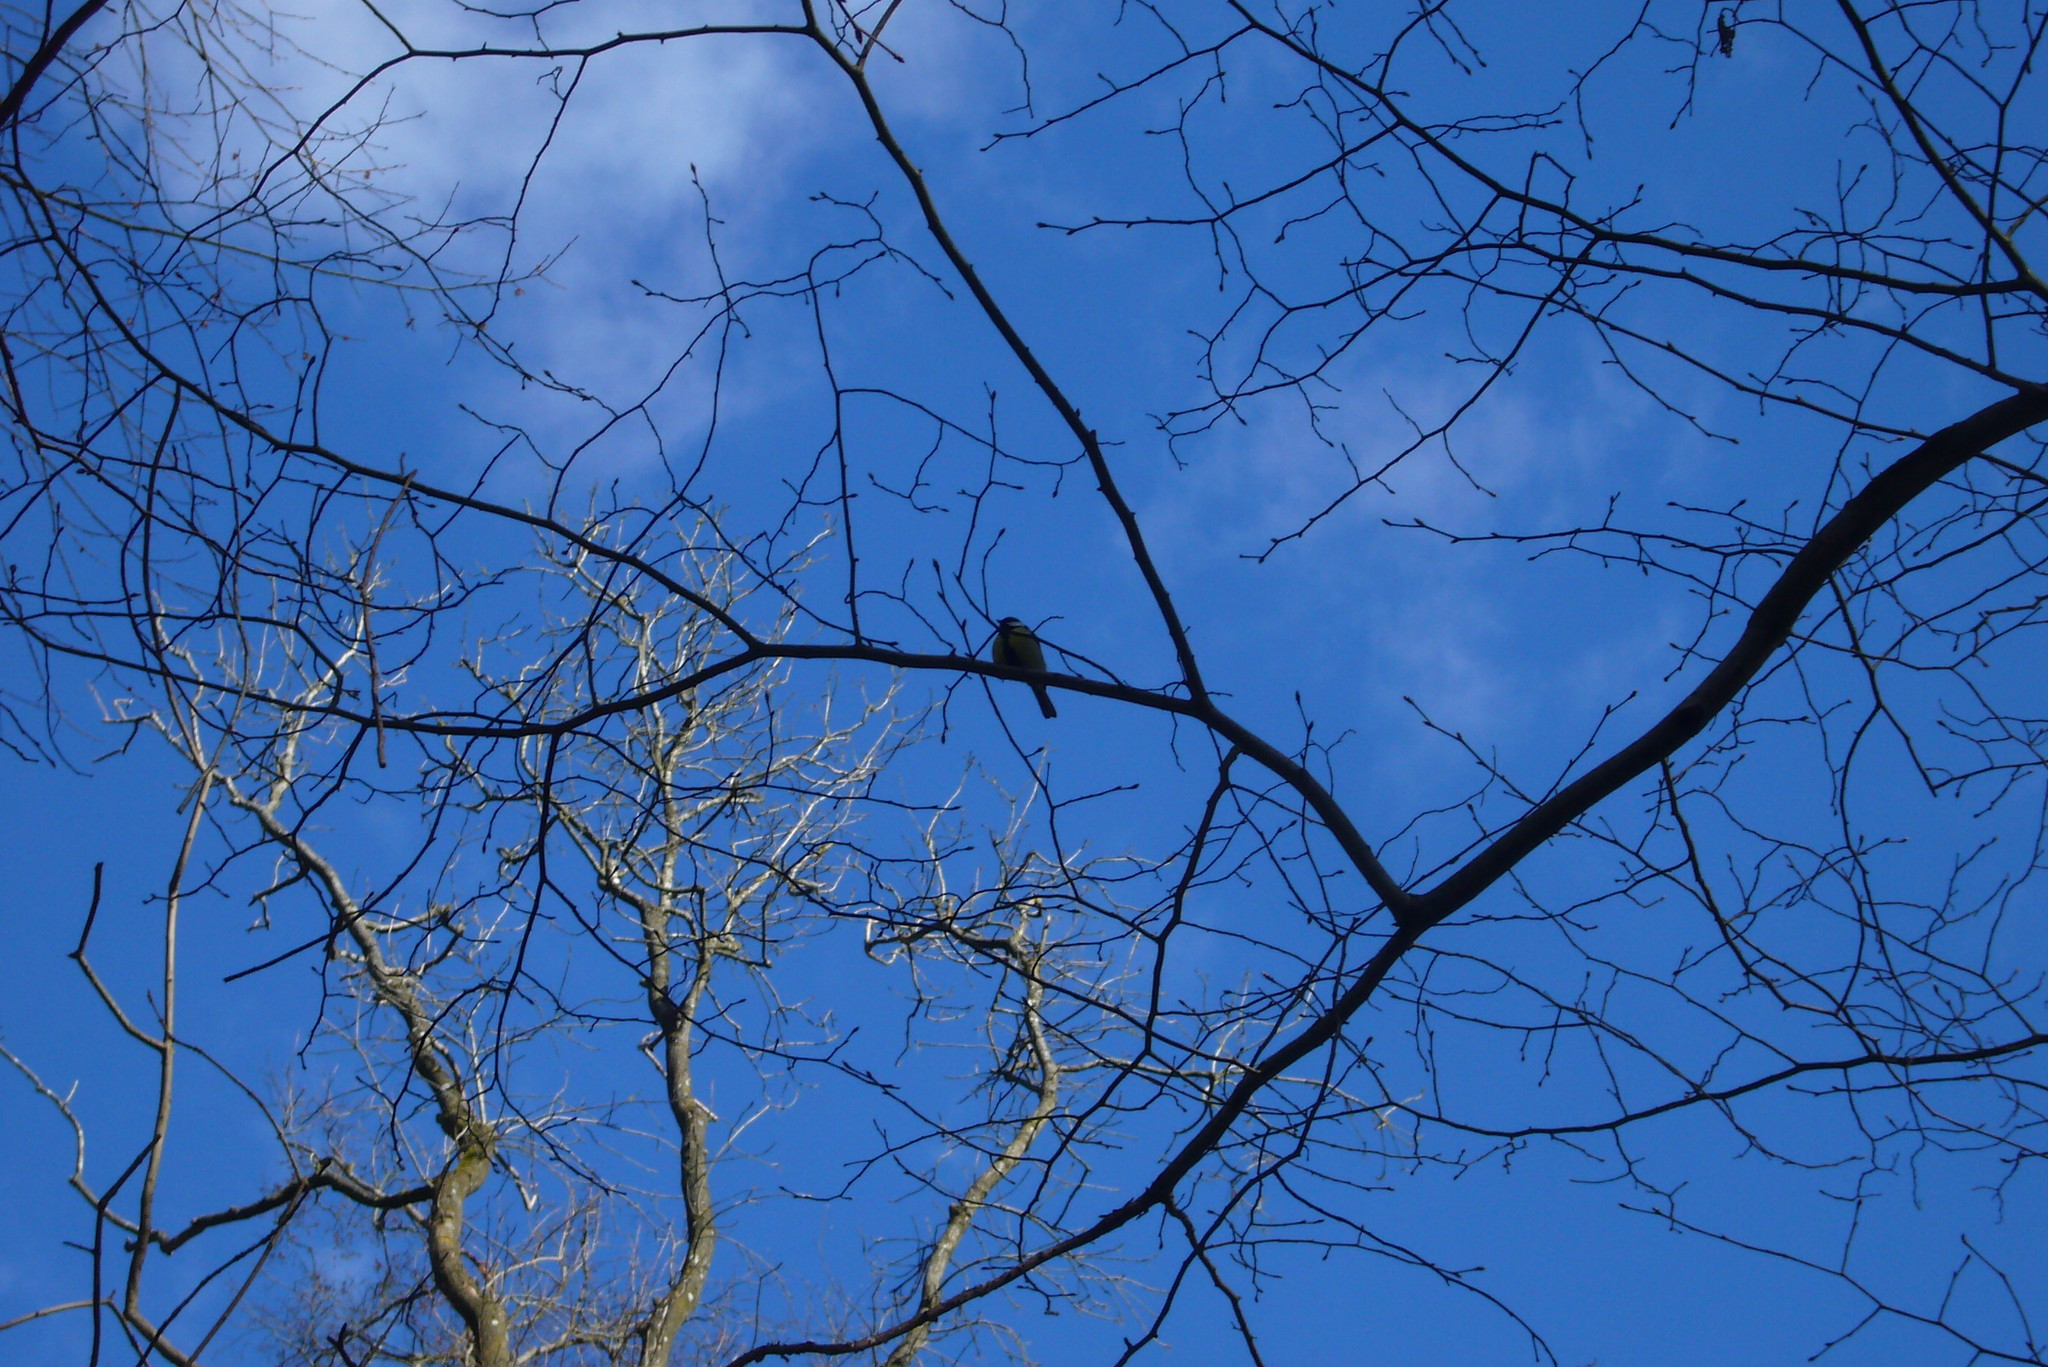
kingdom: Animalia
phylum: Chordata
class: Aves
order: Passeriformes
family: Paridae
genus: Parus
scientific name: Parus major
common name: Great tit
